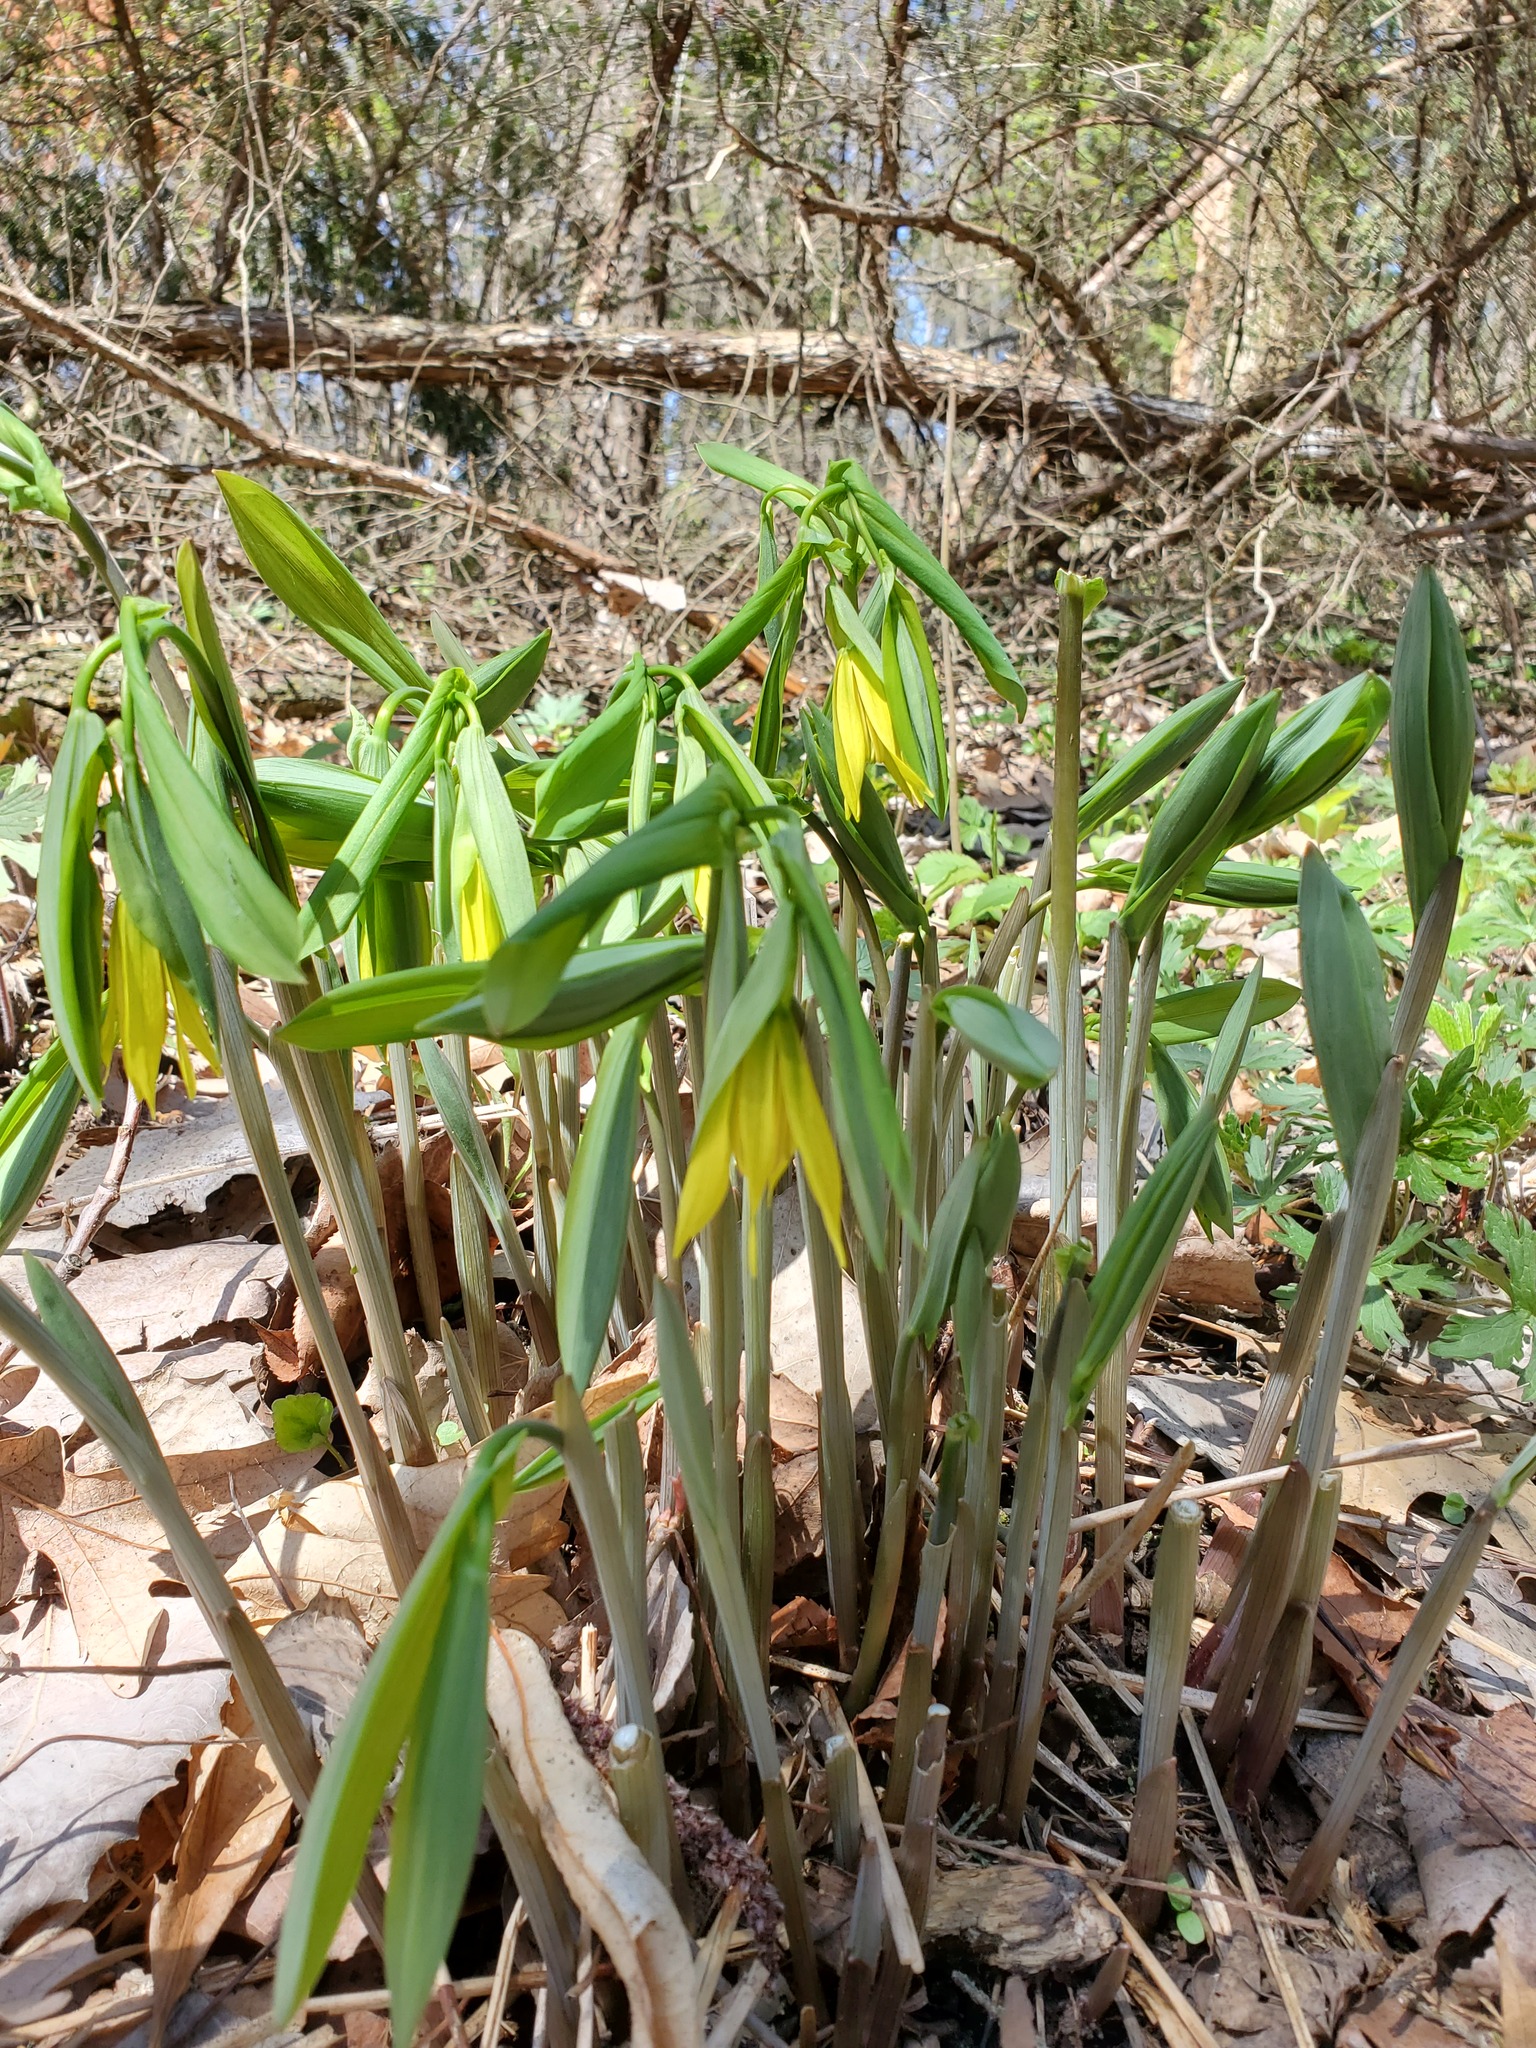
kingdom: Plantae
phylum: Tracheophyta
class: Liliopsida
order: Liliales
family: Colchicaceae
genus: Uvularia
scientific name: Uvularia grandiflora
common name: Bellwort
